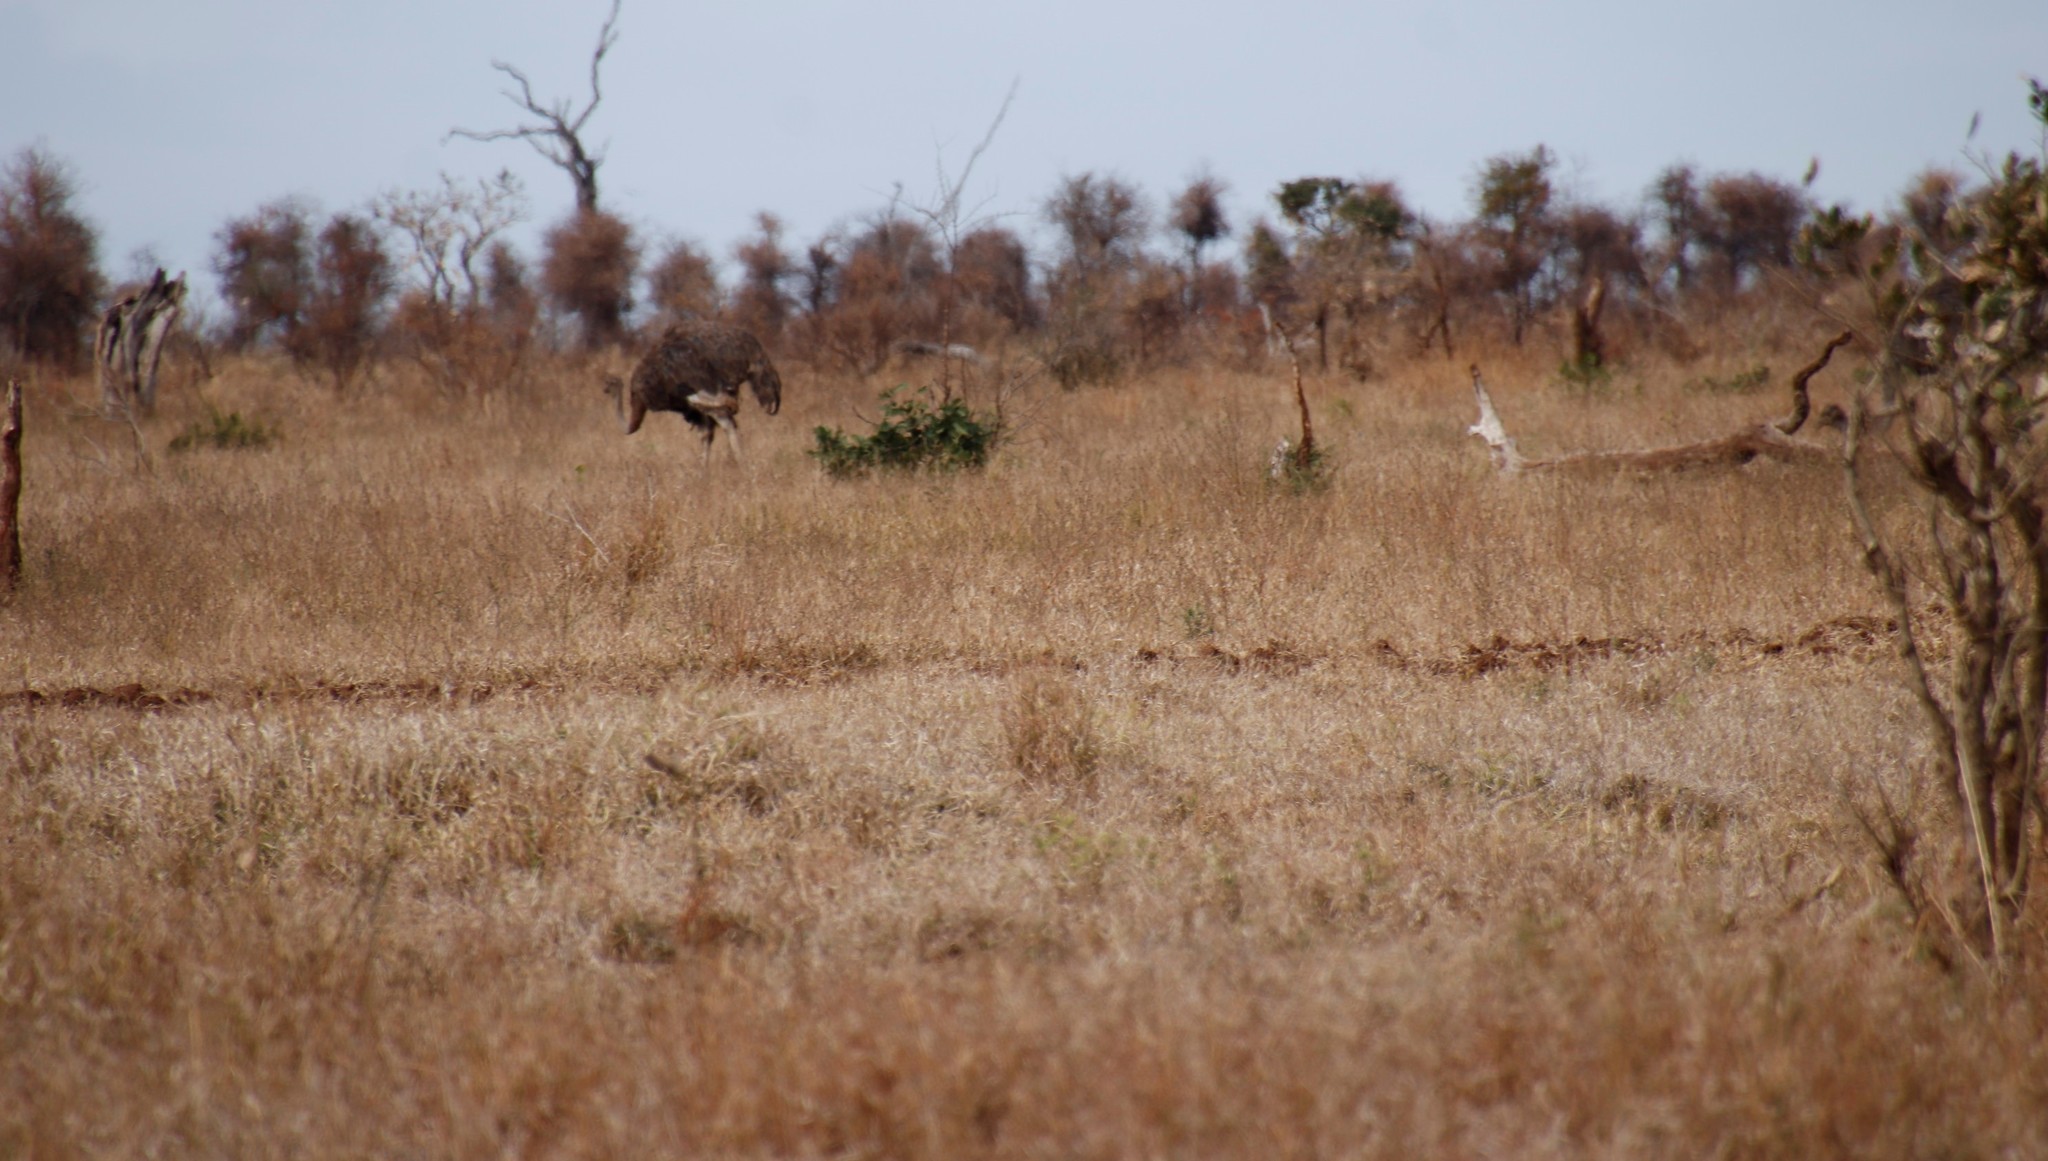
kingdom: Animalia
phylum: Chordata
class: Aves
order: Struthioniformes
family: Struthionidae
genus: Struthio
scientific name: Struthio camelus
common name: Common ostrich
